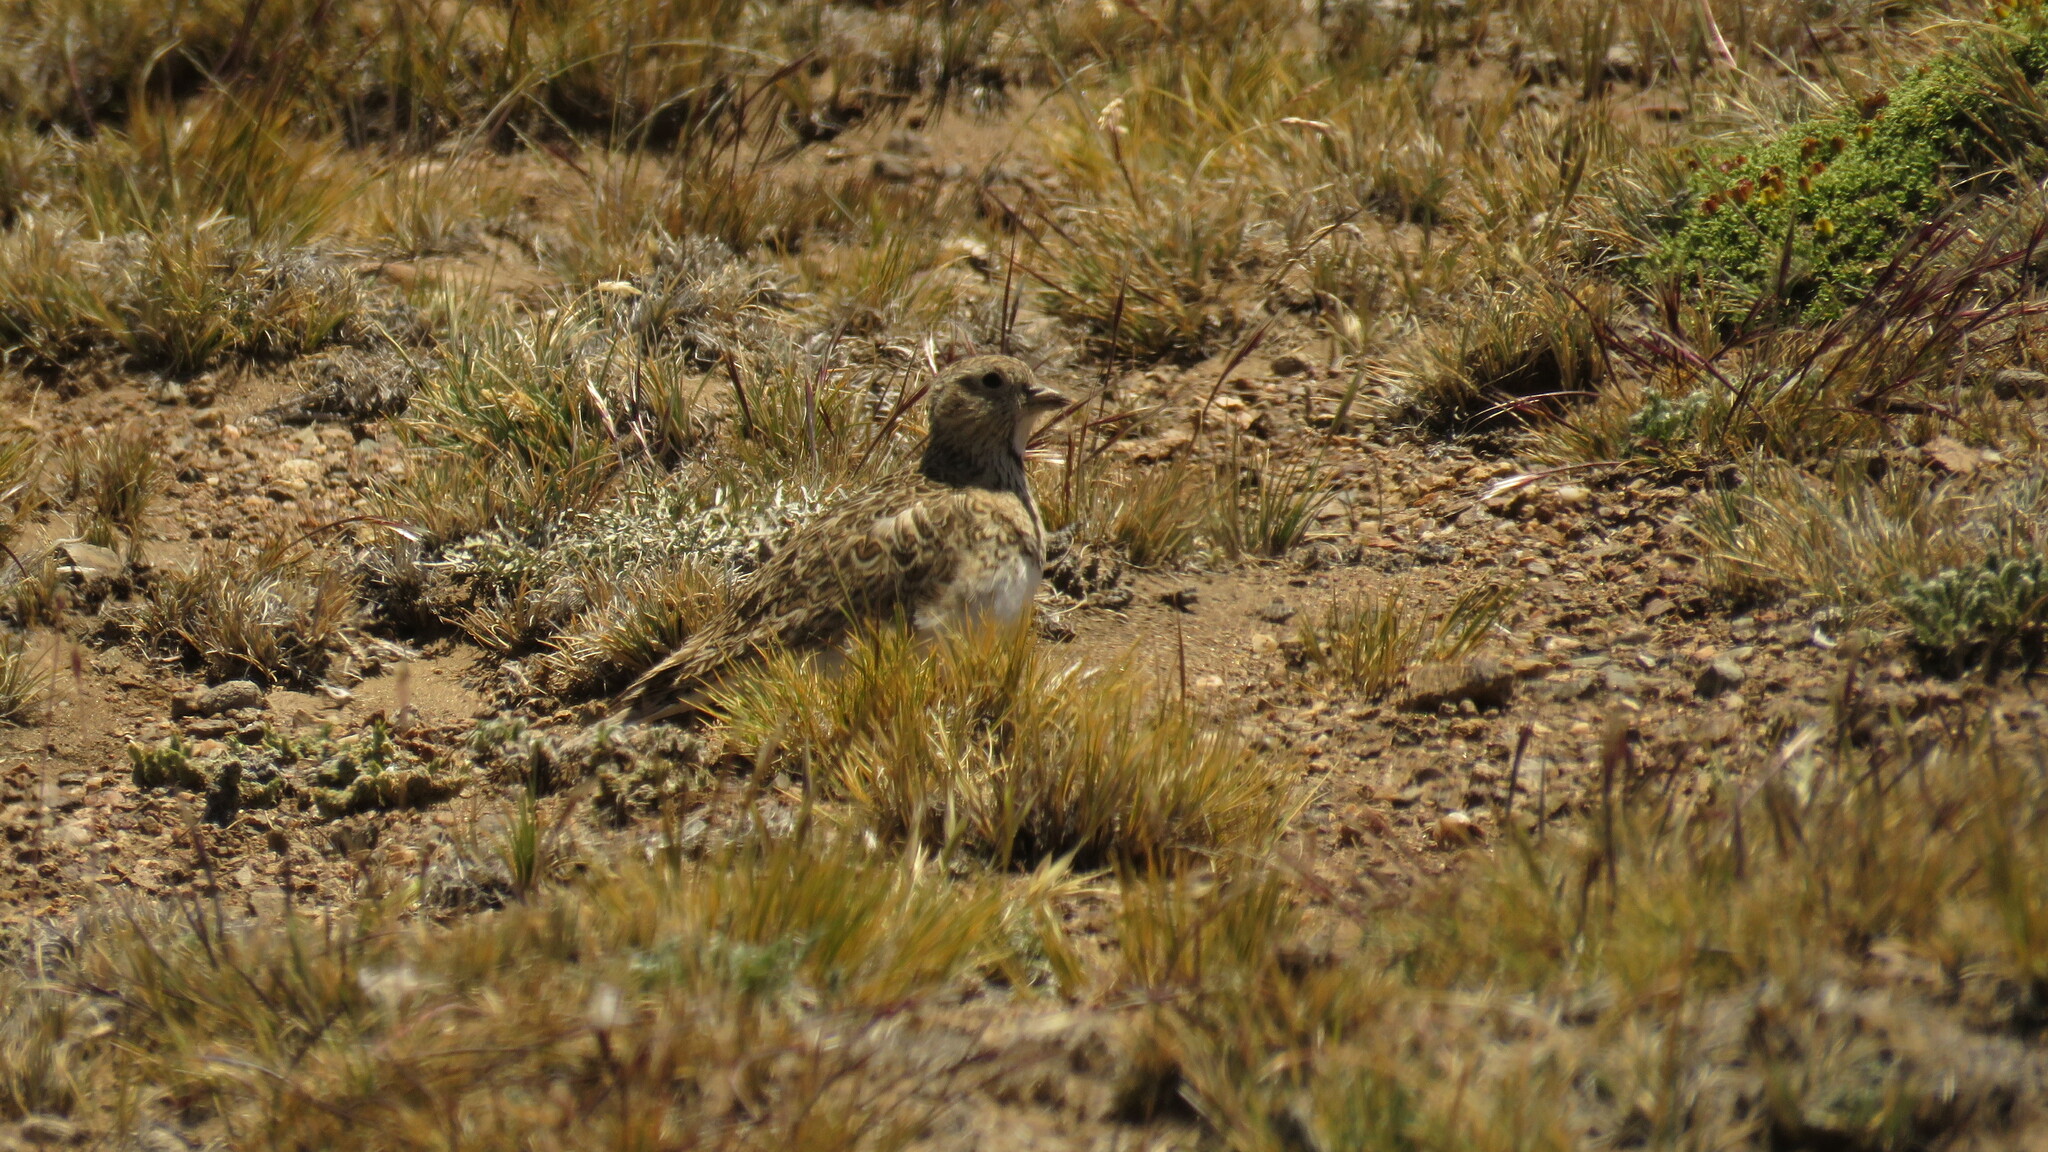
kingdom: Animalia
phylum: Chordata
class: Aves
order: Charadriiformes
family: Thinocoridae
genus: Thinocorus
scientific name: Thinocorus rumicivorus
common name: Least seedsnipe
